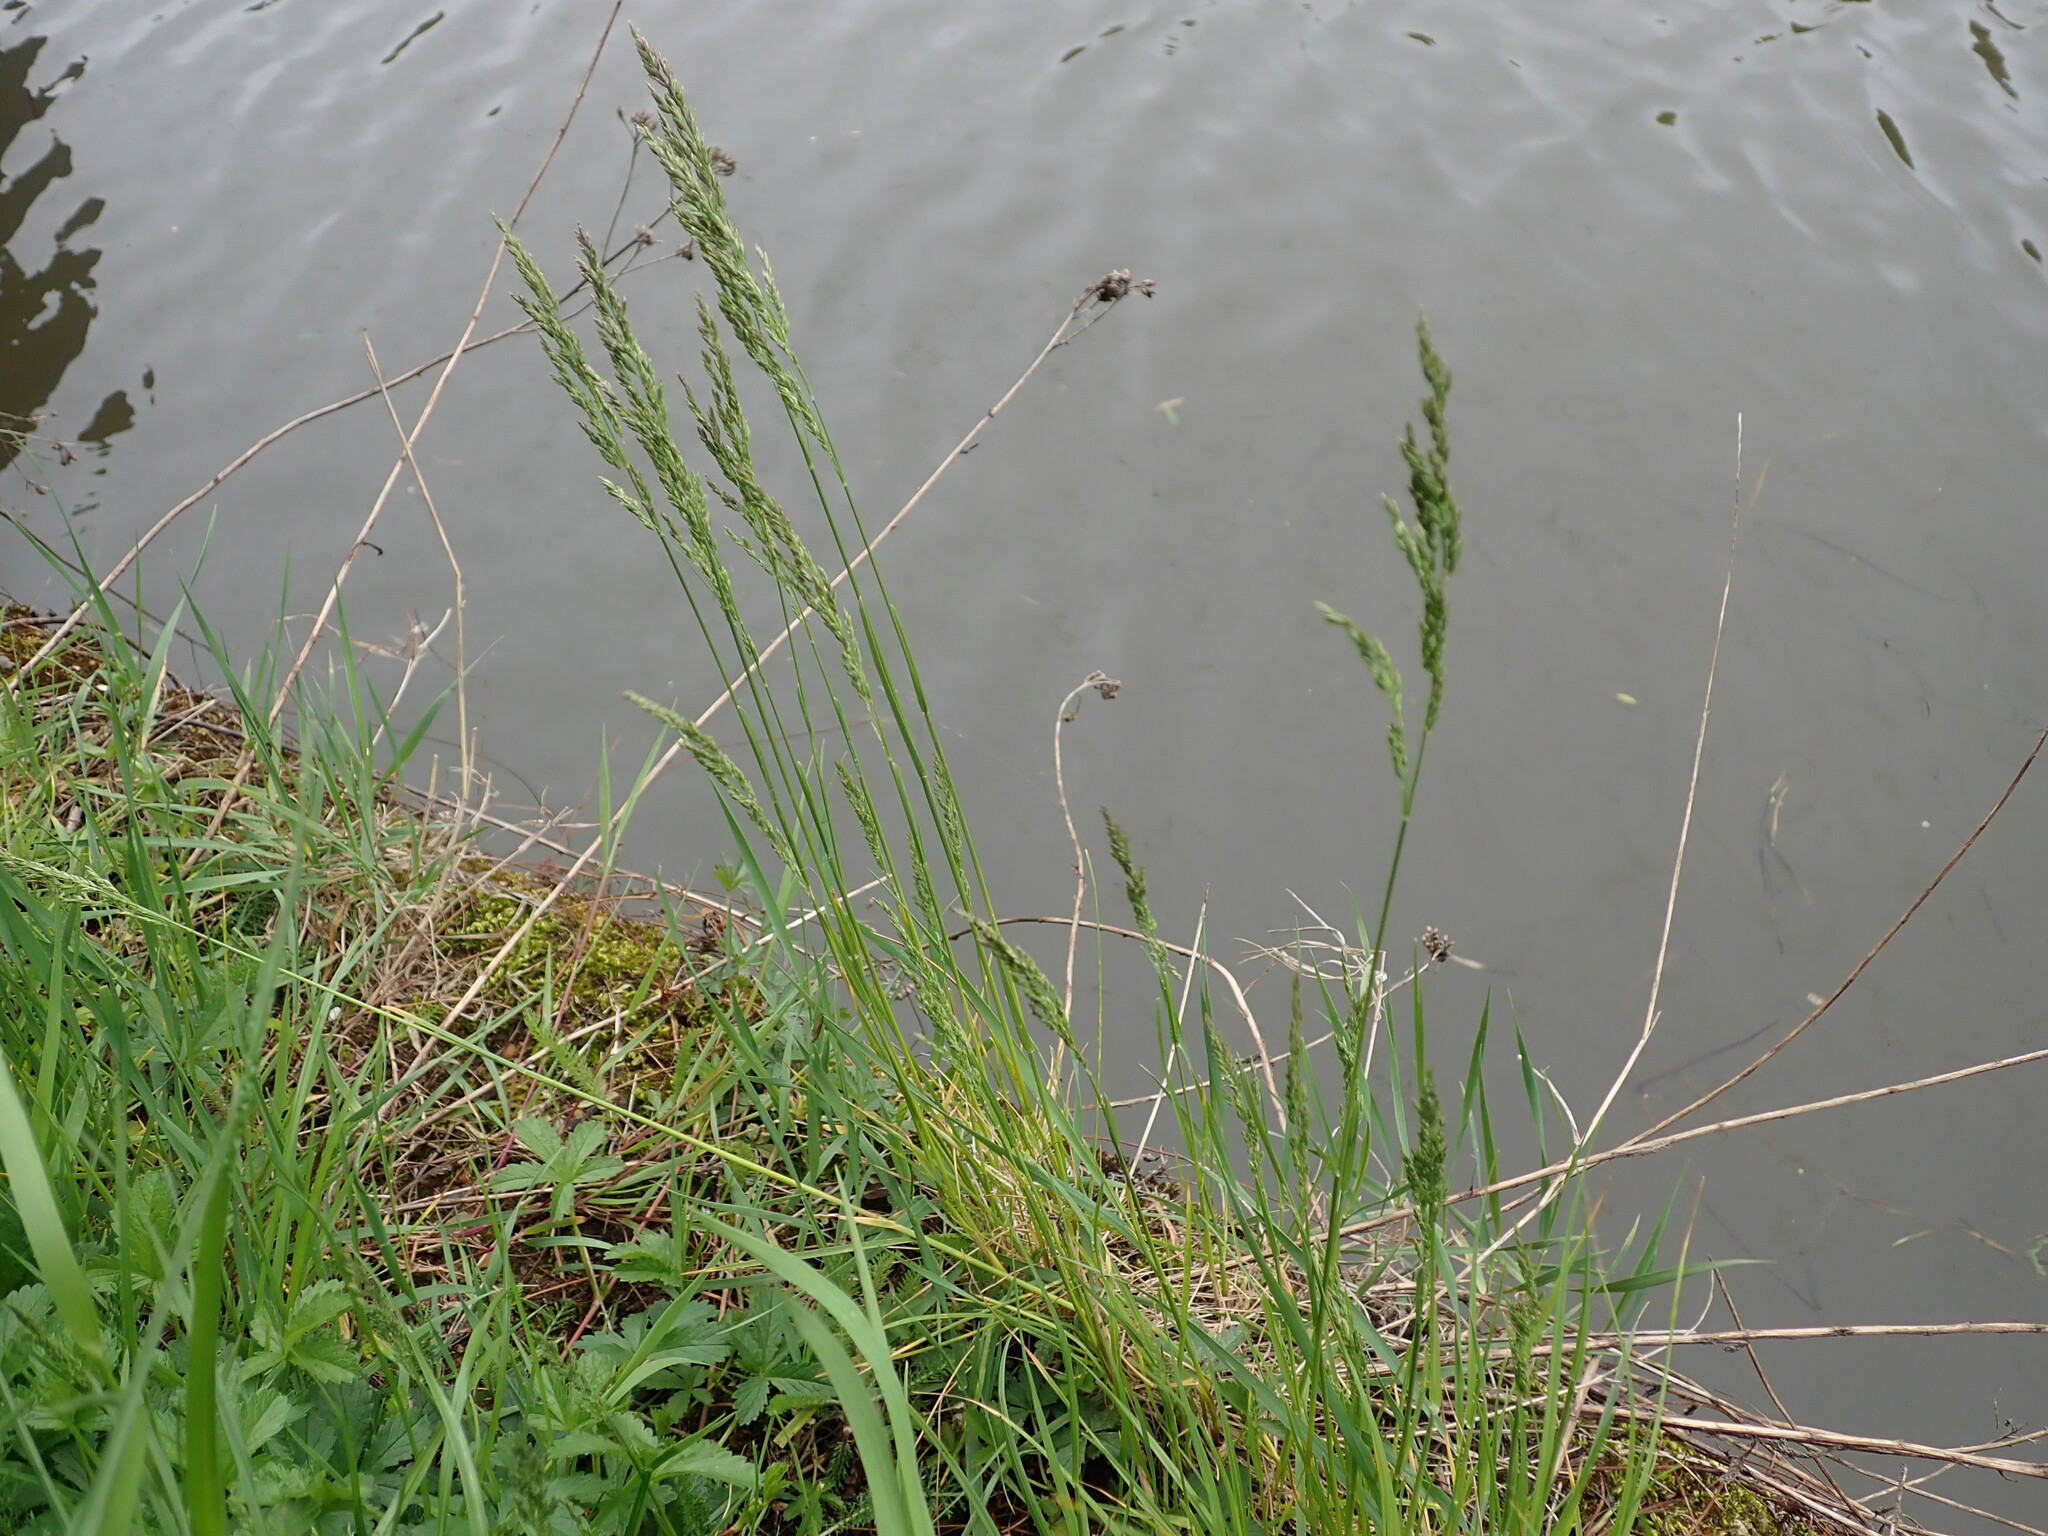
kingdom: Plantae
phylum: Tracheophyta
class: Liliopsida
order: Poales
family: Poaceae
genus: Poa
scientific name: Poa pratensis
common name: Kentucky bluegrass
